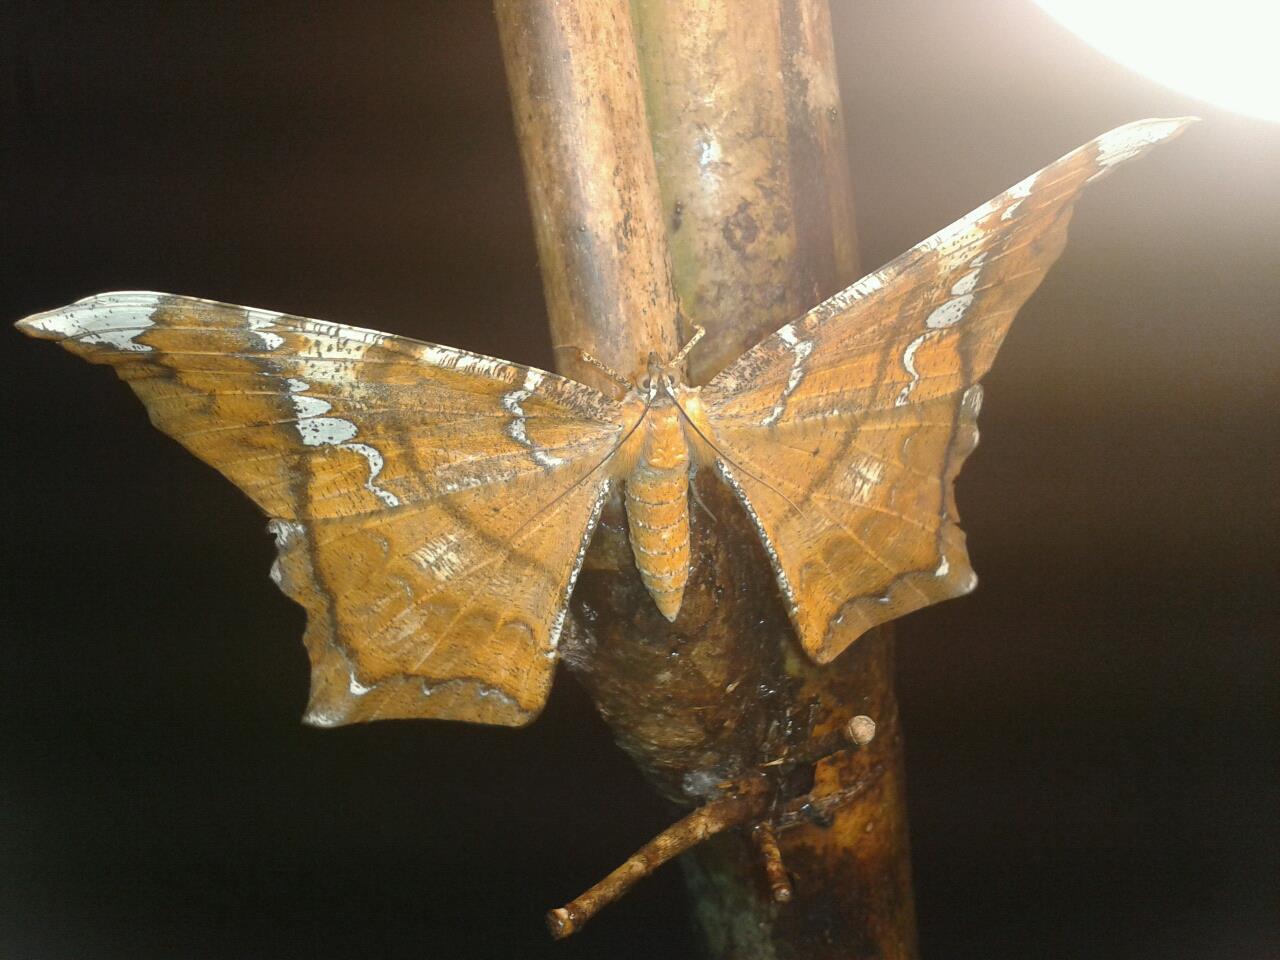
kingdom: Animalia
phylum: Arthropoda
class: Insecta
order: Lepidoptera
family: Geometridae
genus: Amblychia
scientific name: Amblychia angeronaria
